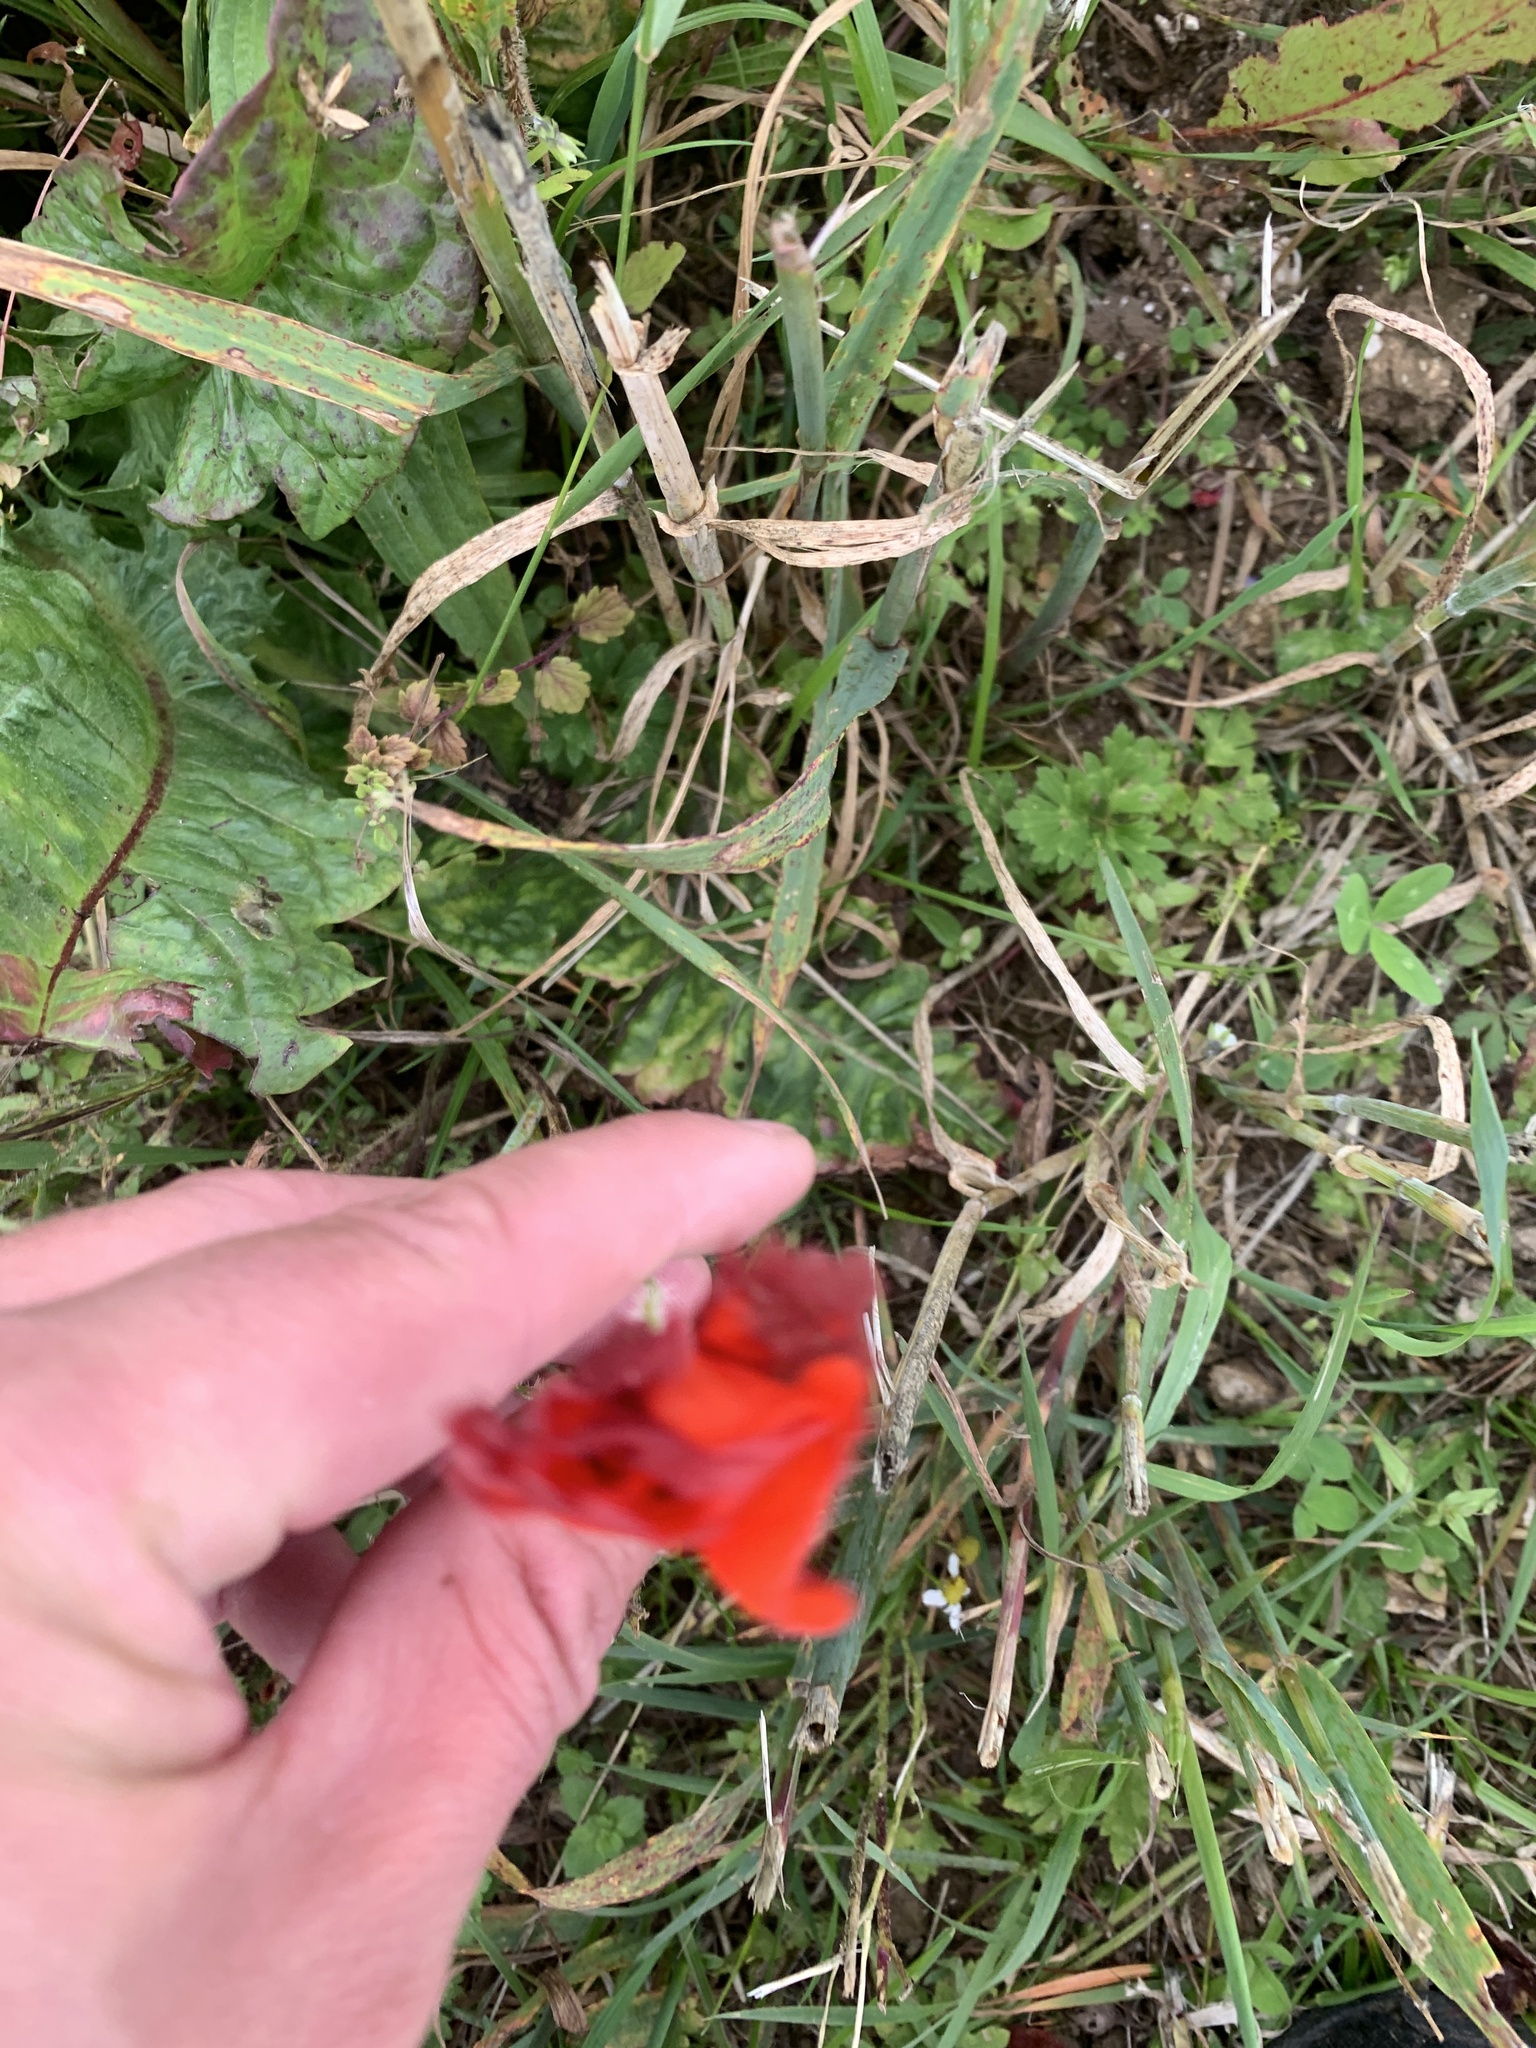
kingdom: Plantae
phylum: Tracheophyta
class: Magnoliopsida
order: Ranunculales
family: Papaveraceae
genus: Papaver
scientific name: Papaver rhoeas
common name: Corn poppy
